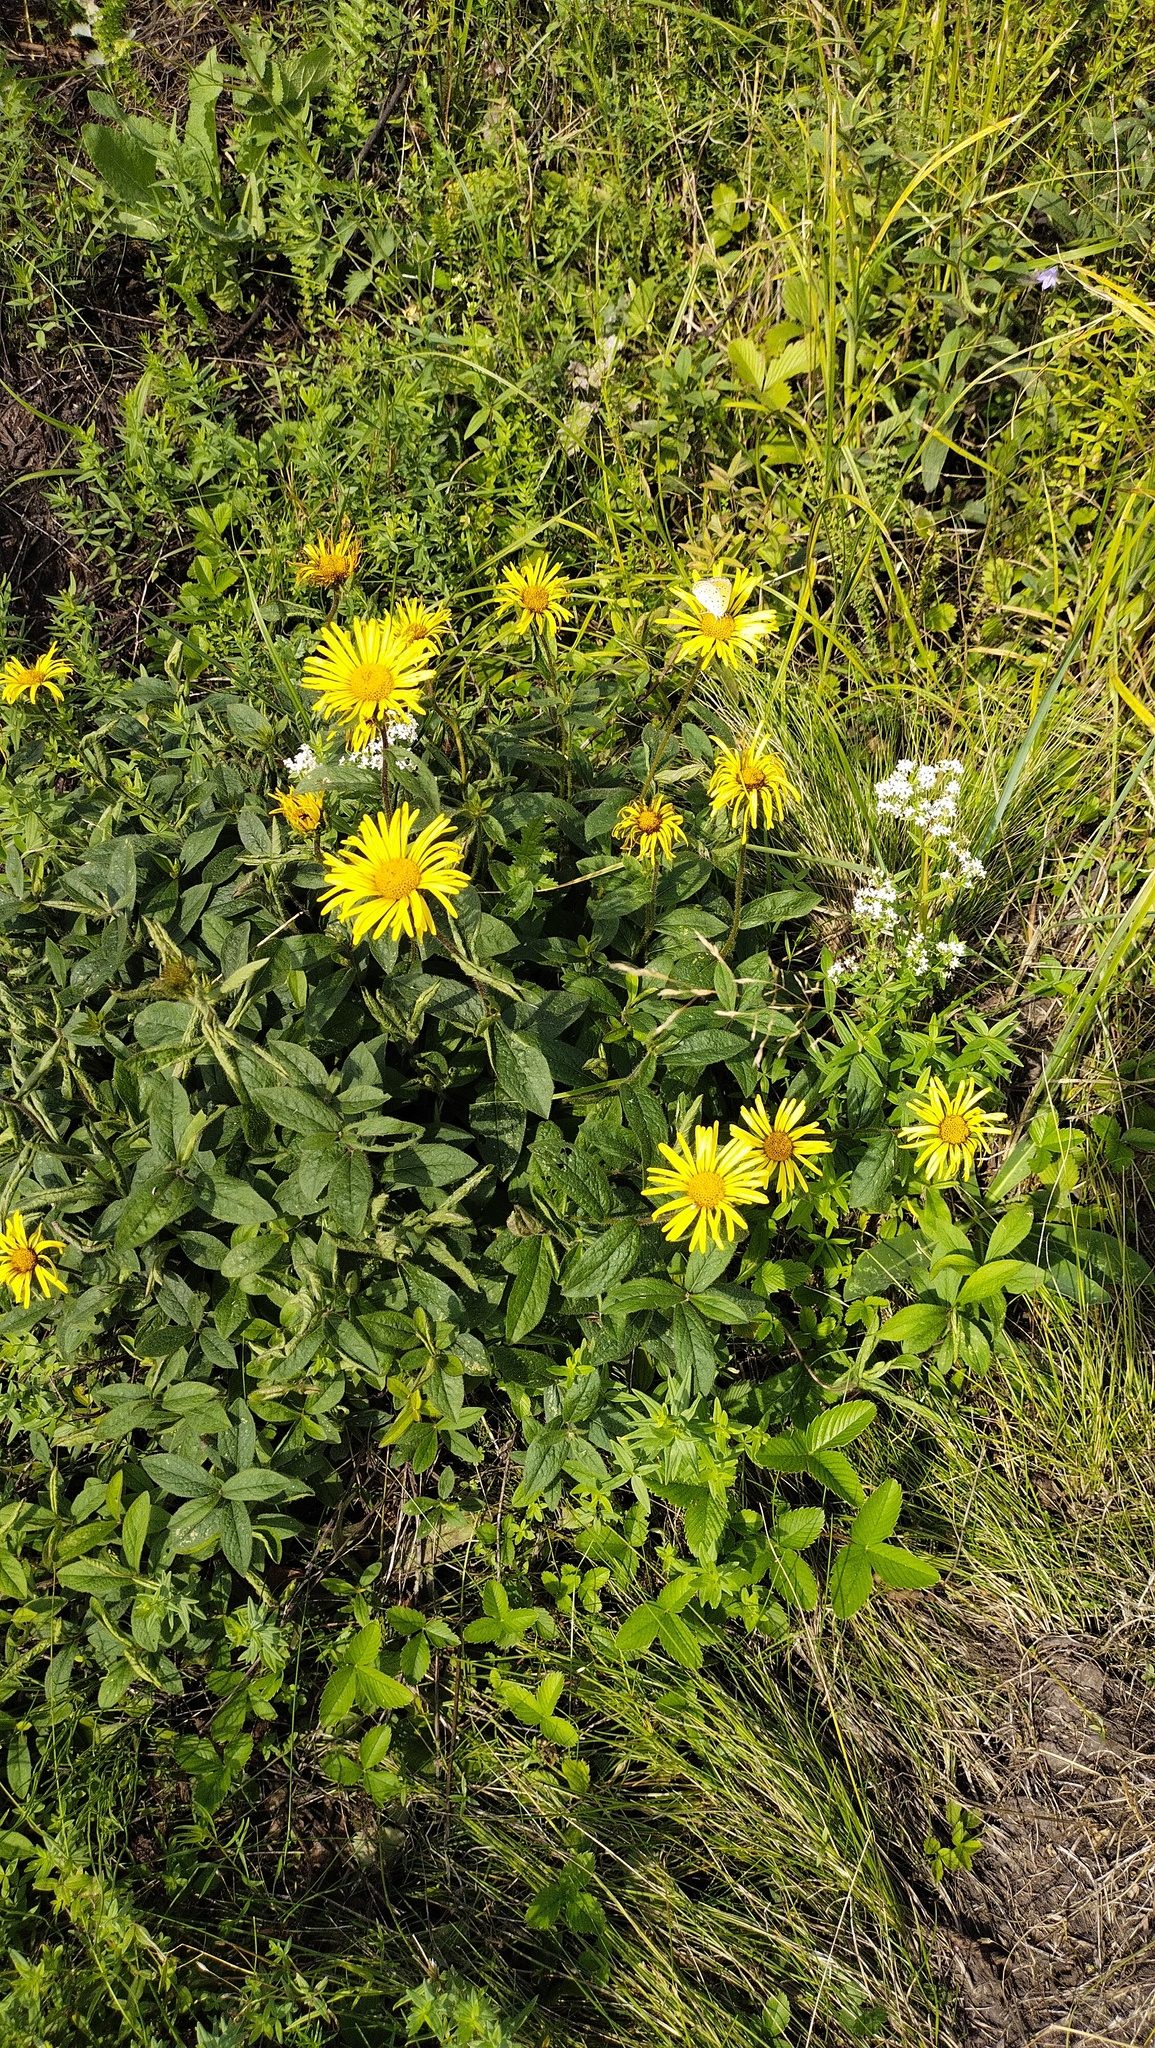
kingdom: Plantae
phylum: Tracheophyta
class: Magnoliopsida
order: Asterales
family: Asteraceae
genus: Pentanema
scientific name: Pentanema hirtum
